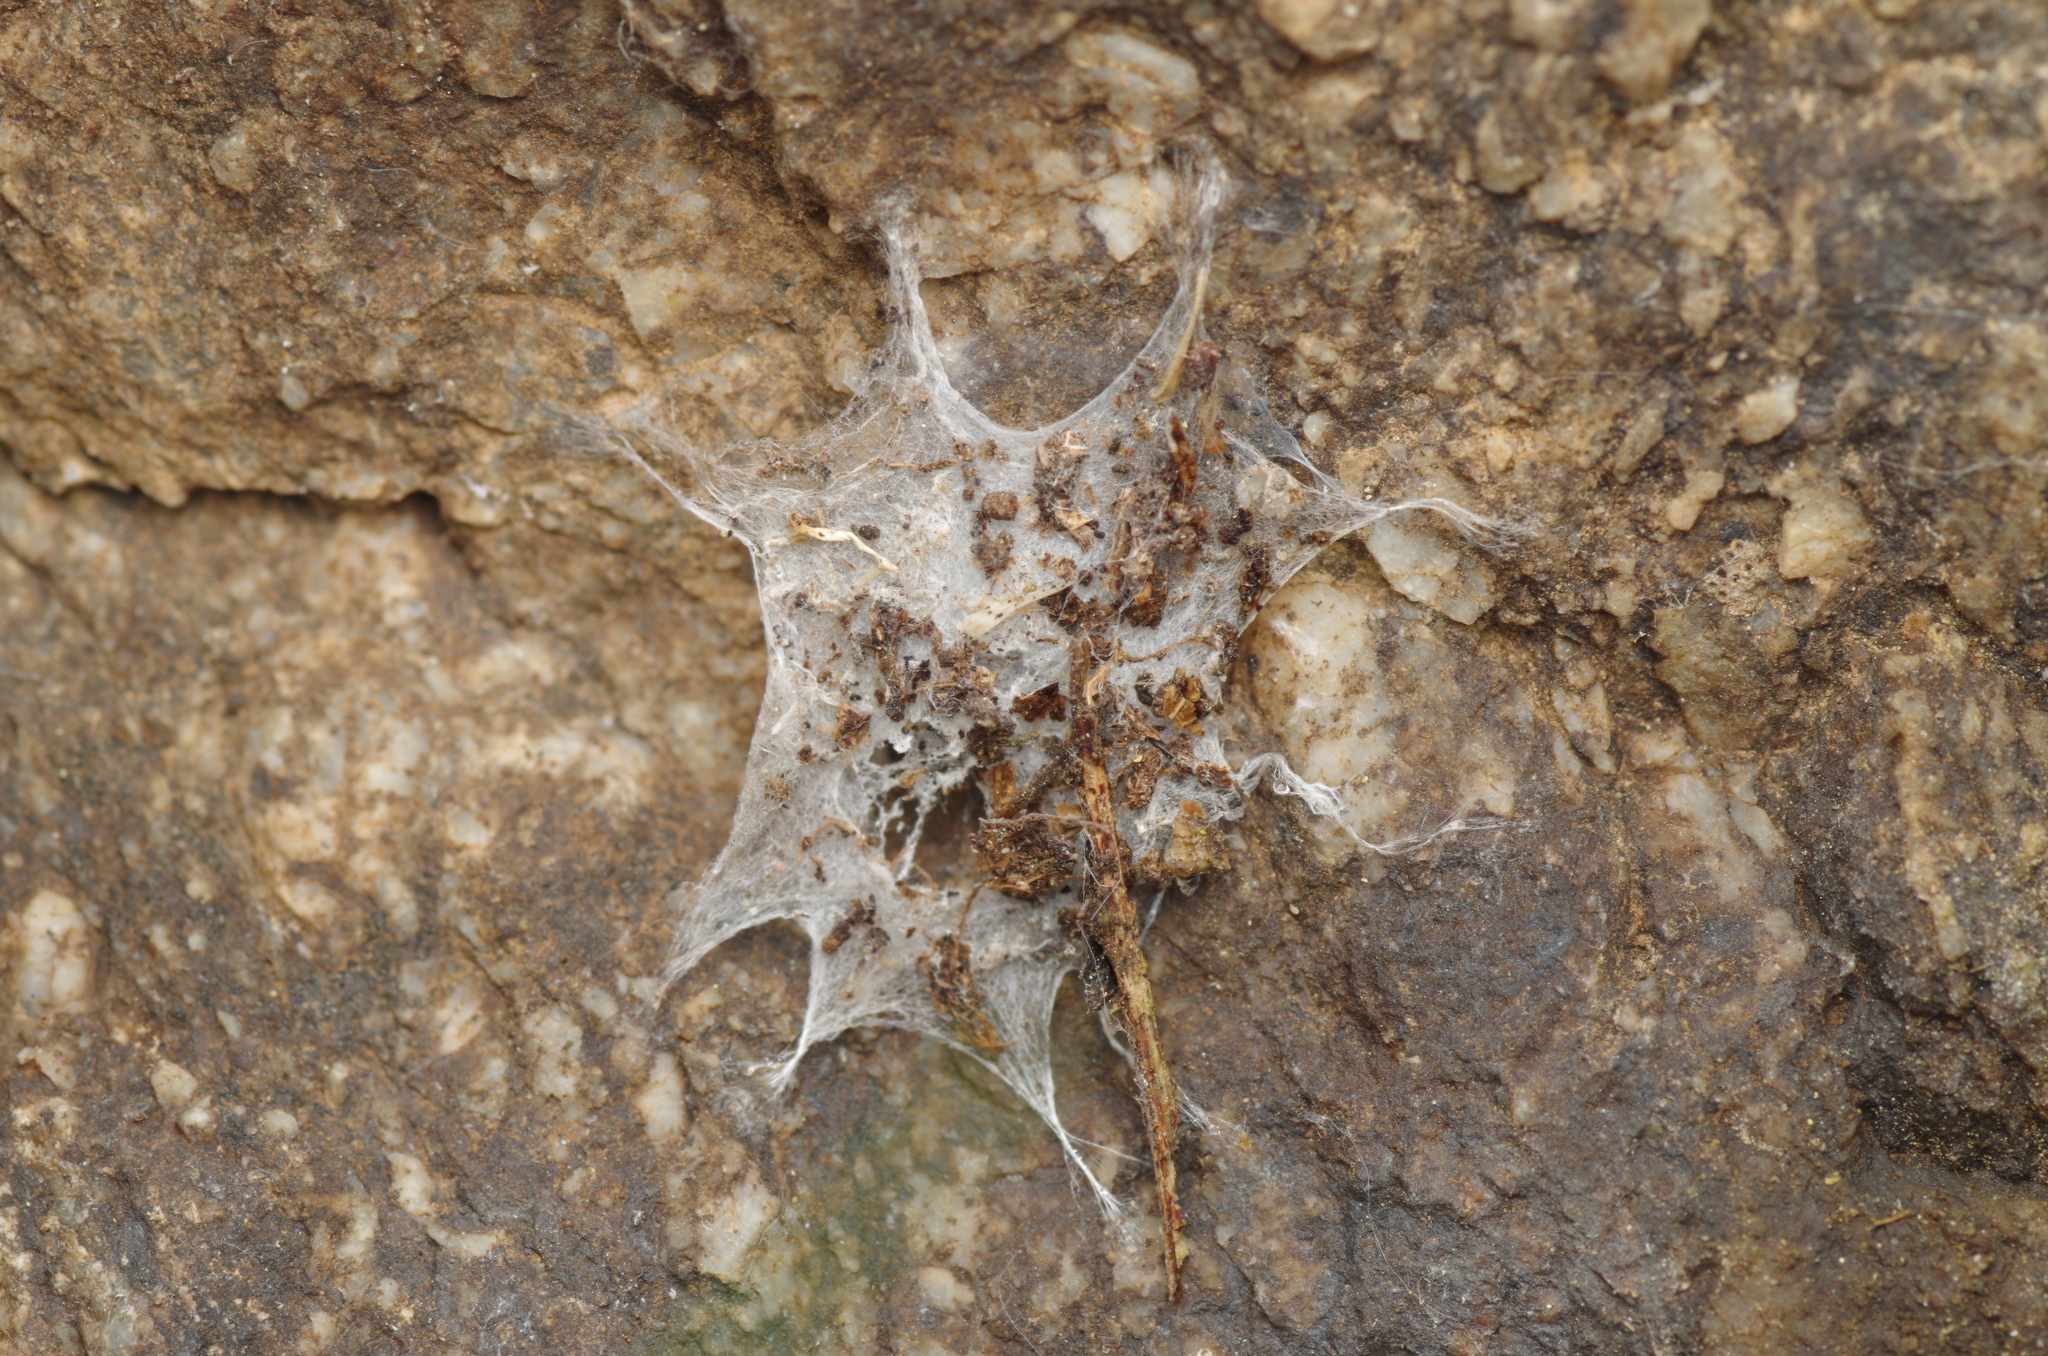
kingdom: Animalia
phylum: Arthropoda
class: Arachnida
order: Araneae
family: Oecobiidae
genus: Uroctea
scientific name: Uroctea durandi
